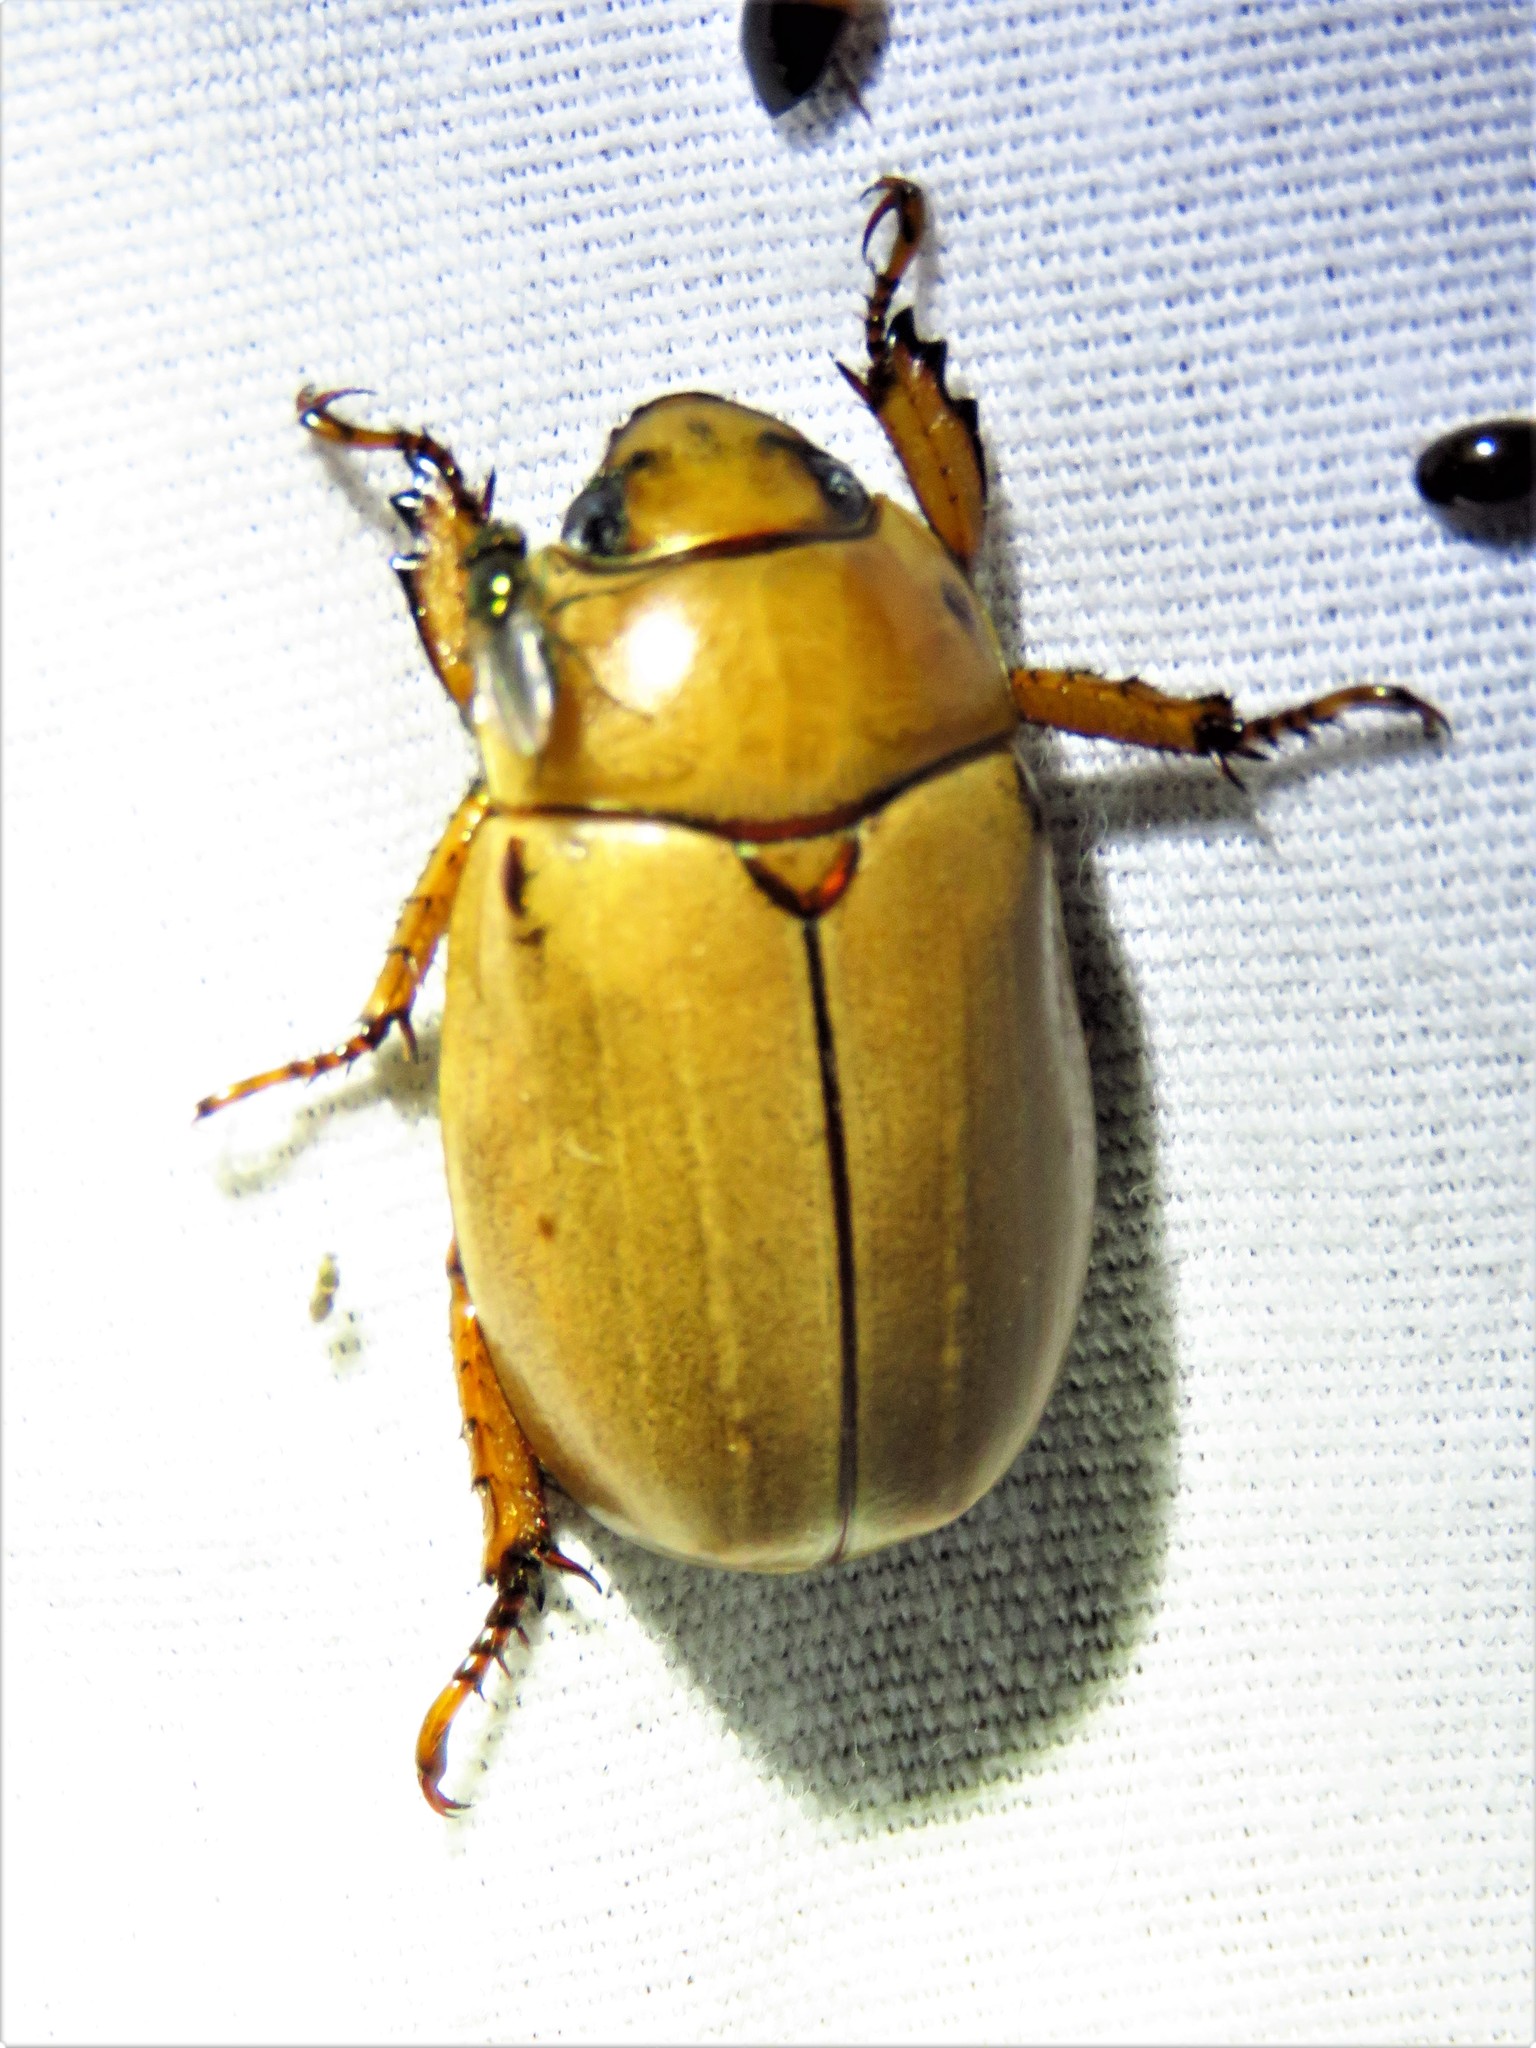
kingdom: Animalia
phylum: Arthropoda
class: Insecta
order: Coleoptera
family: Scarabaeidae
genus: Pelidnota
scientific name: Pelidnota punctata
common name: Grapevine beetle
